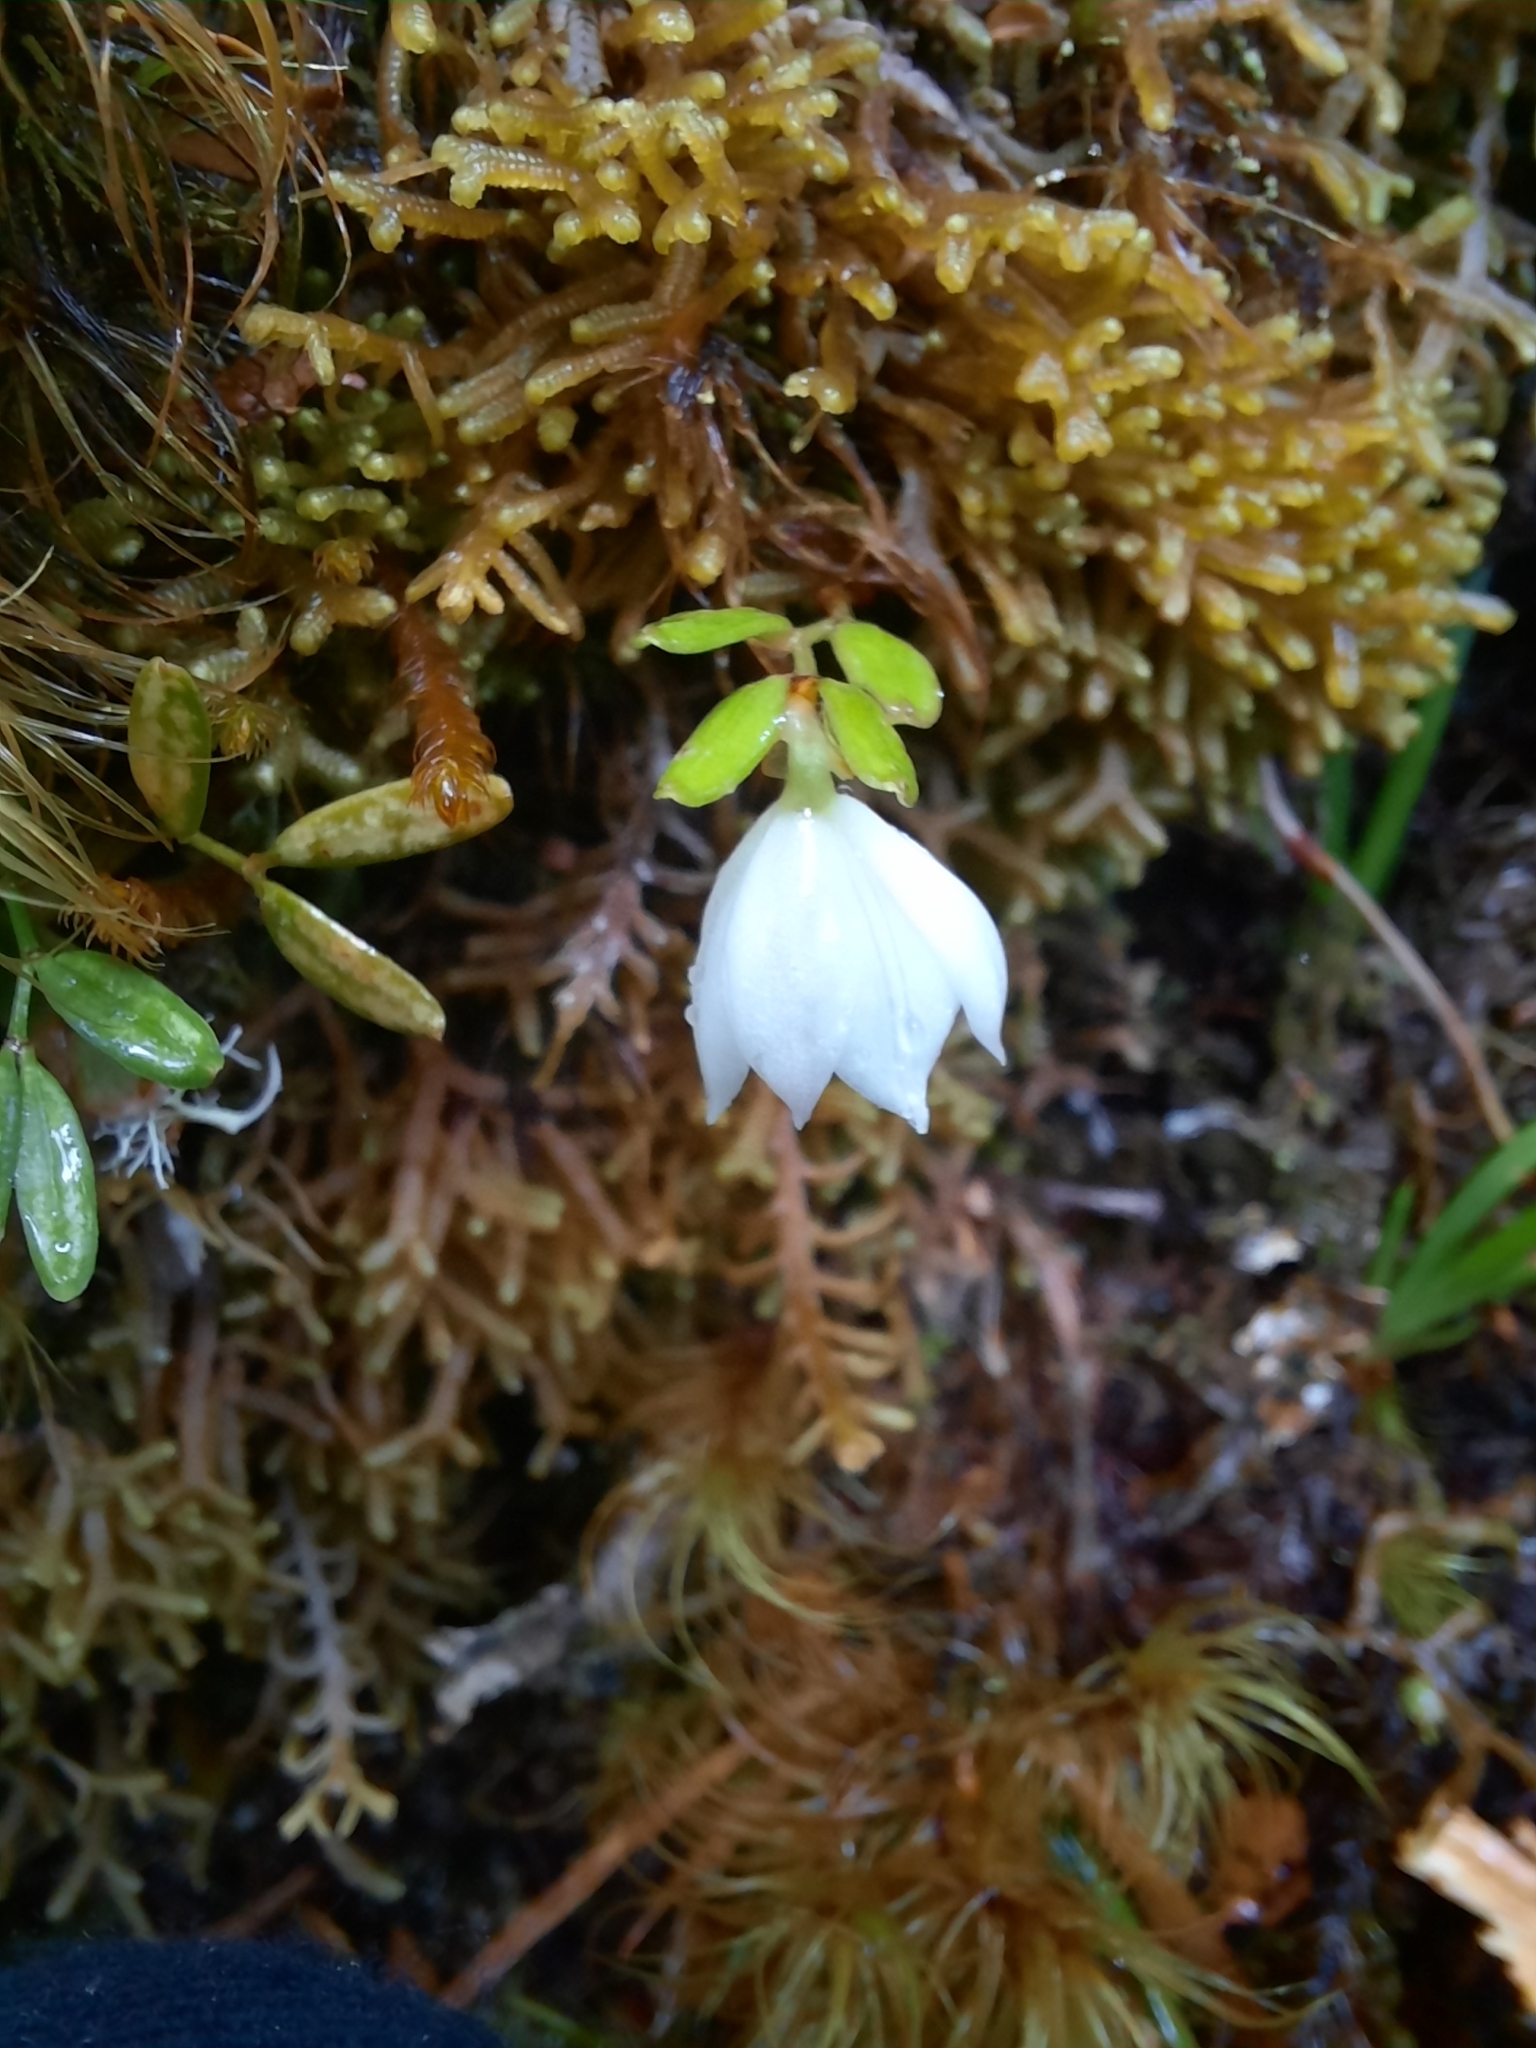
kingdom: Plantae
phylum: Tracheophyta
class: Liliopsida
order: Liliales
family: Alstroemeriaceae
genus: Luzuriaga
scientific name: Luzuriaga parviflora
